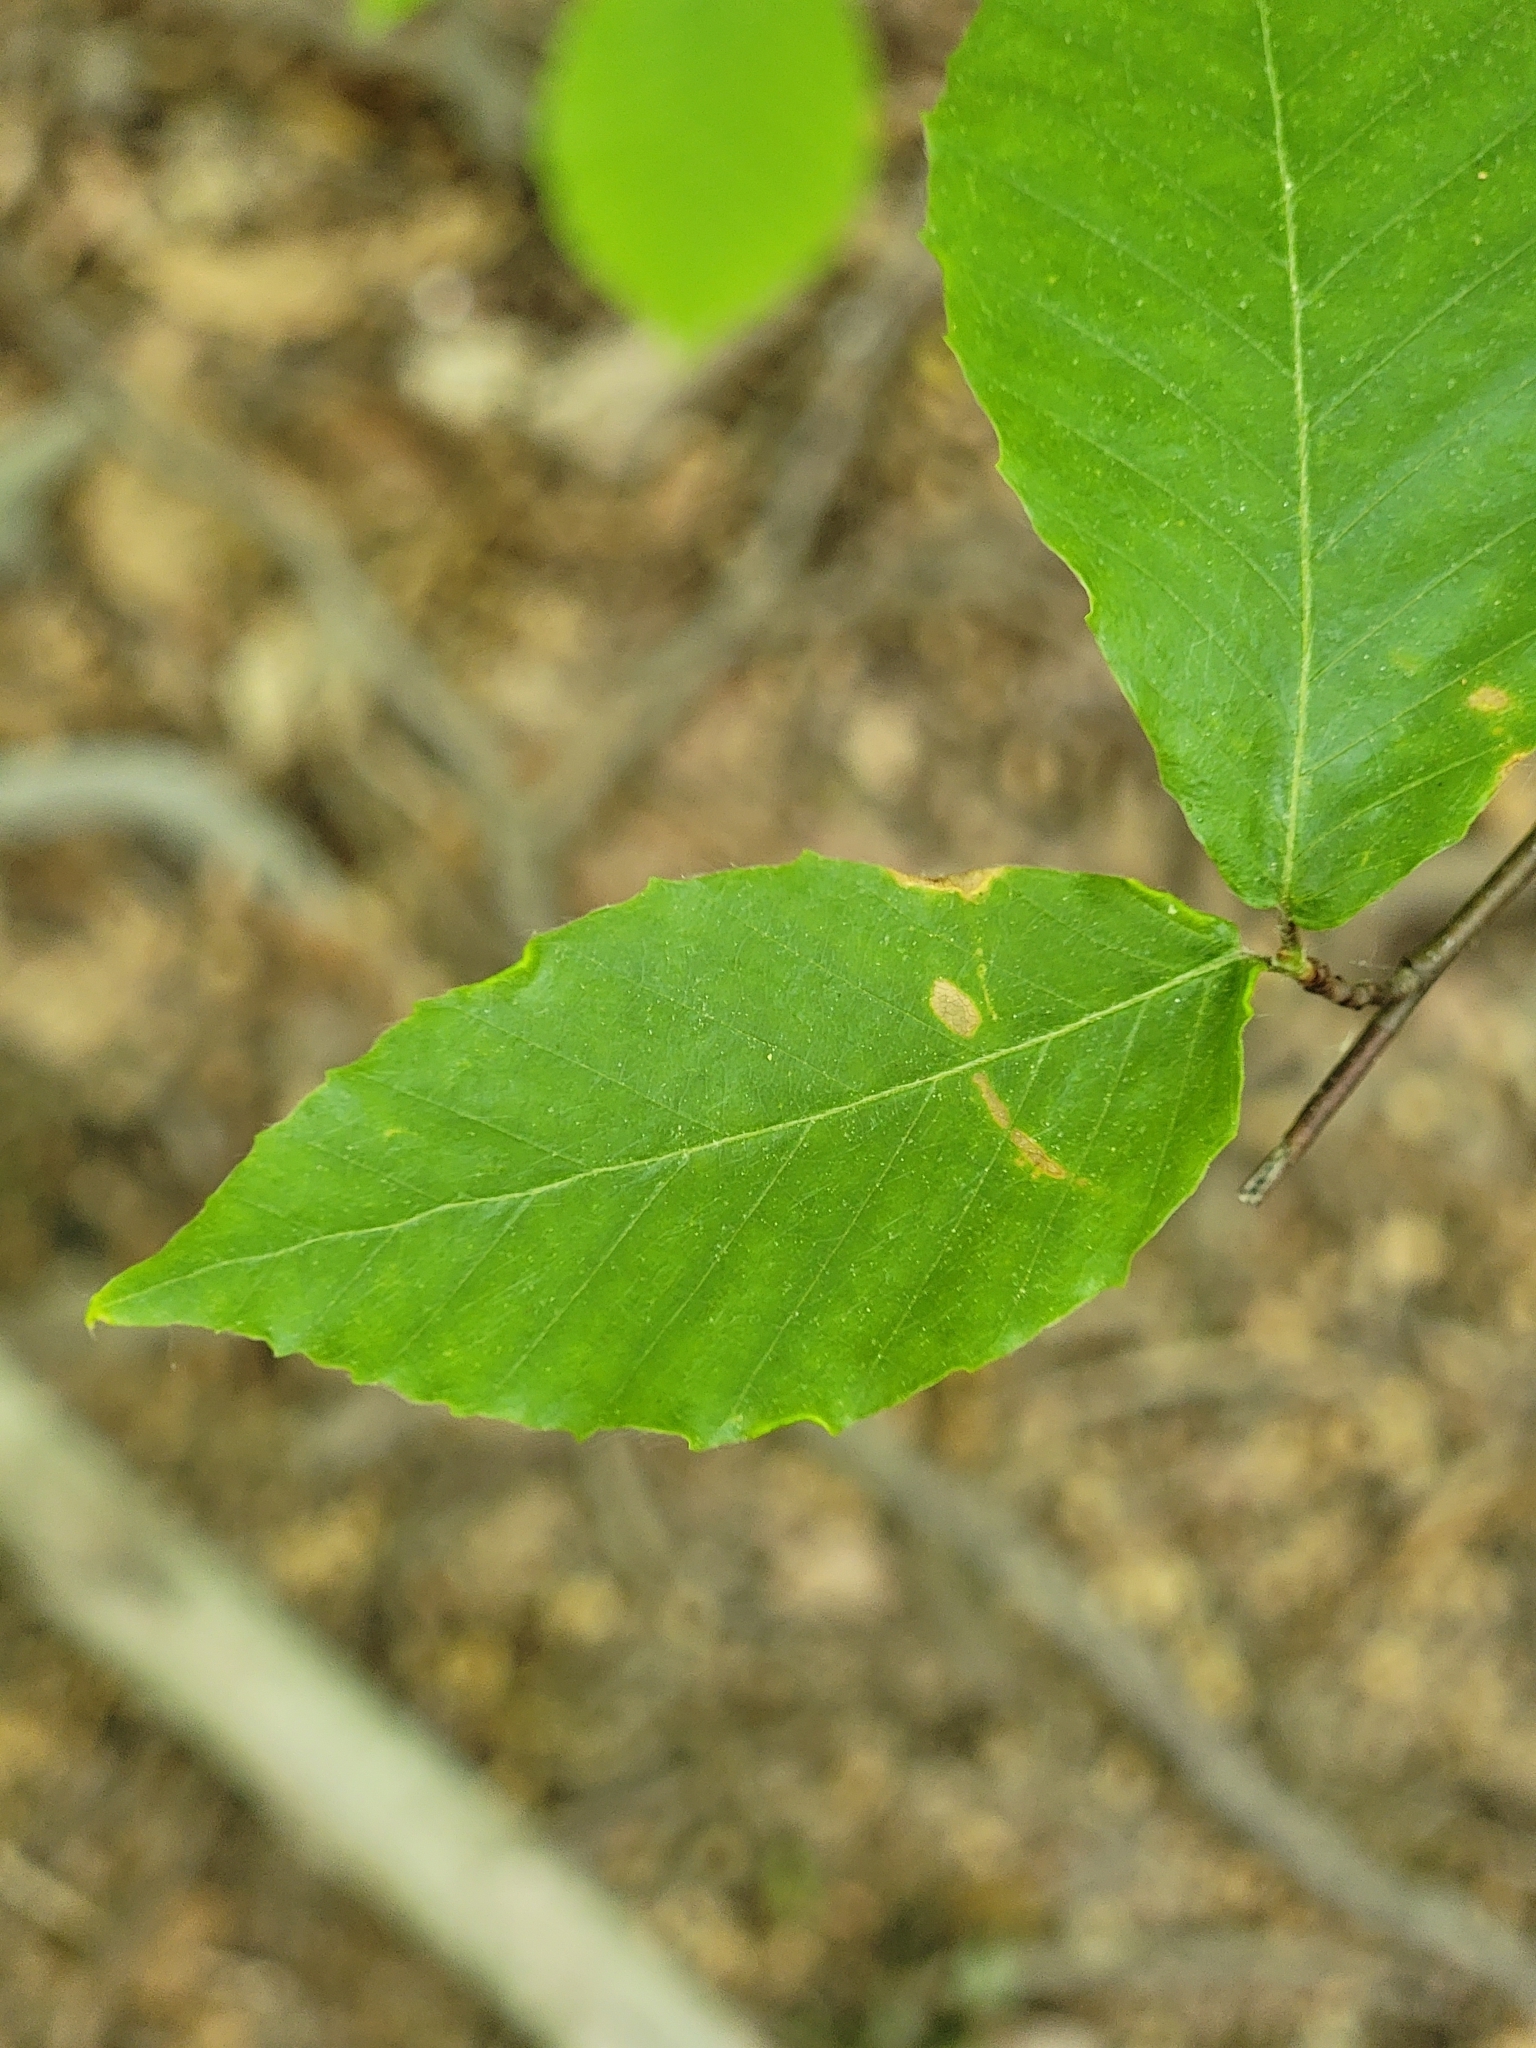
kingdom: Plantae
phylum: Tracheophyta
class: Magnoliopsida
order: Fagales
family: Fagaceae
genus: Fagus
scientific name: Fagus grandifolia
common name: American beech
